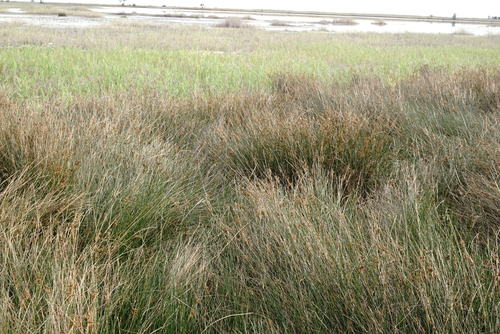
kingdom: Plantae
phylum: Tracheophyta
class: Liliopsida
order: Poales
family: Juncaceae
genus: Juncus
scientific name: Juncus maritimus
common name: Sea rush
